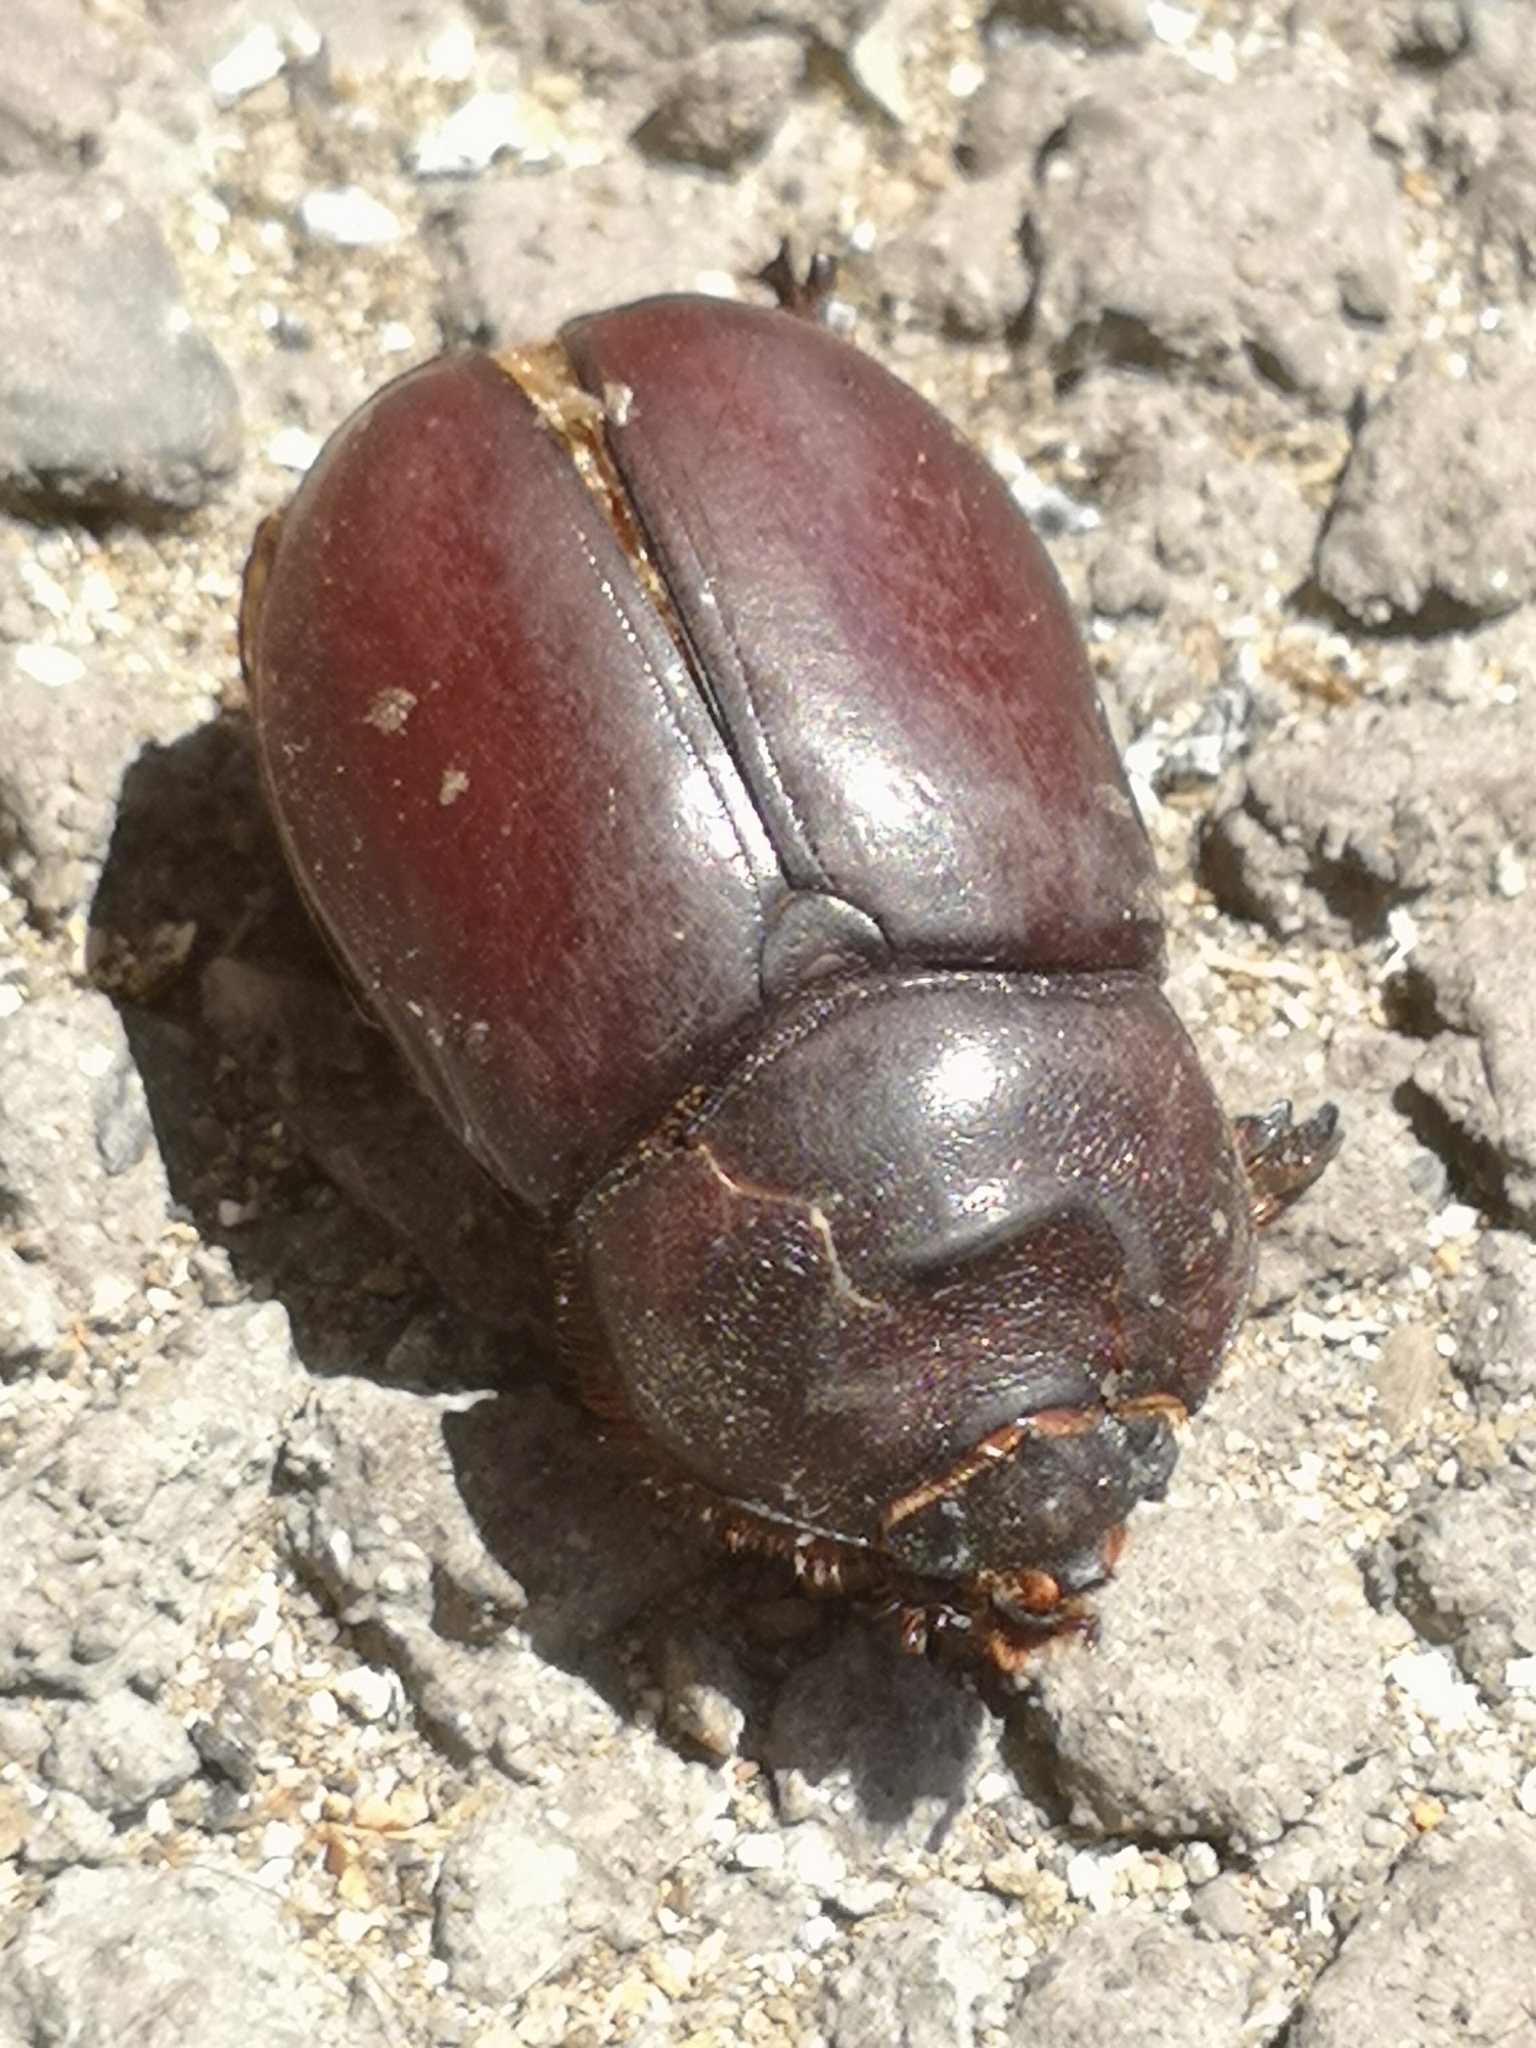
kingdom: Animalia
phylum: Arthropoda
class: Insecta
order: Coleoptera
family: Scarabaeidae
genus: Oryctes
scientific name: Oryctes nasicornis
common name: European rhinoceros beetle
